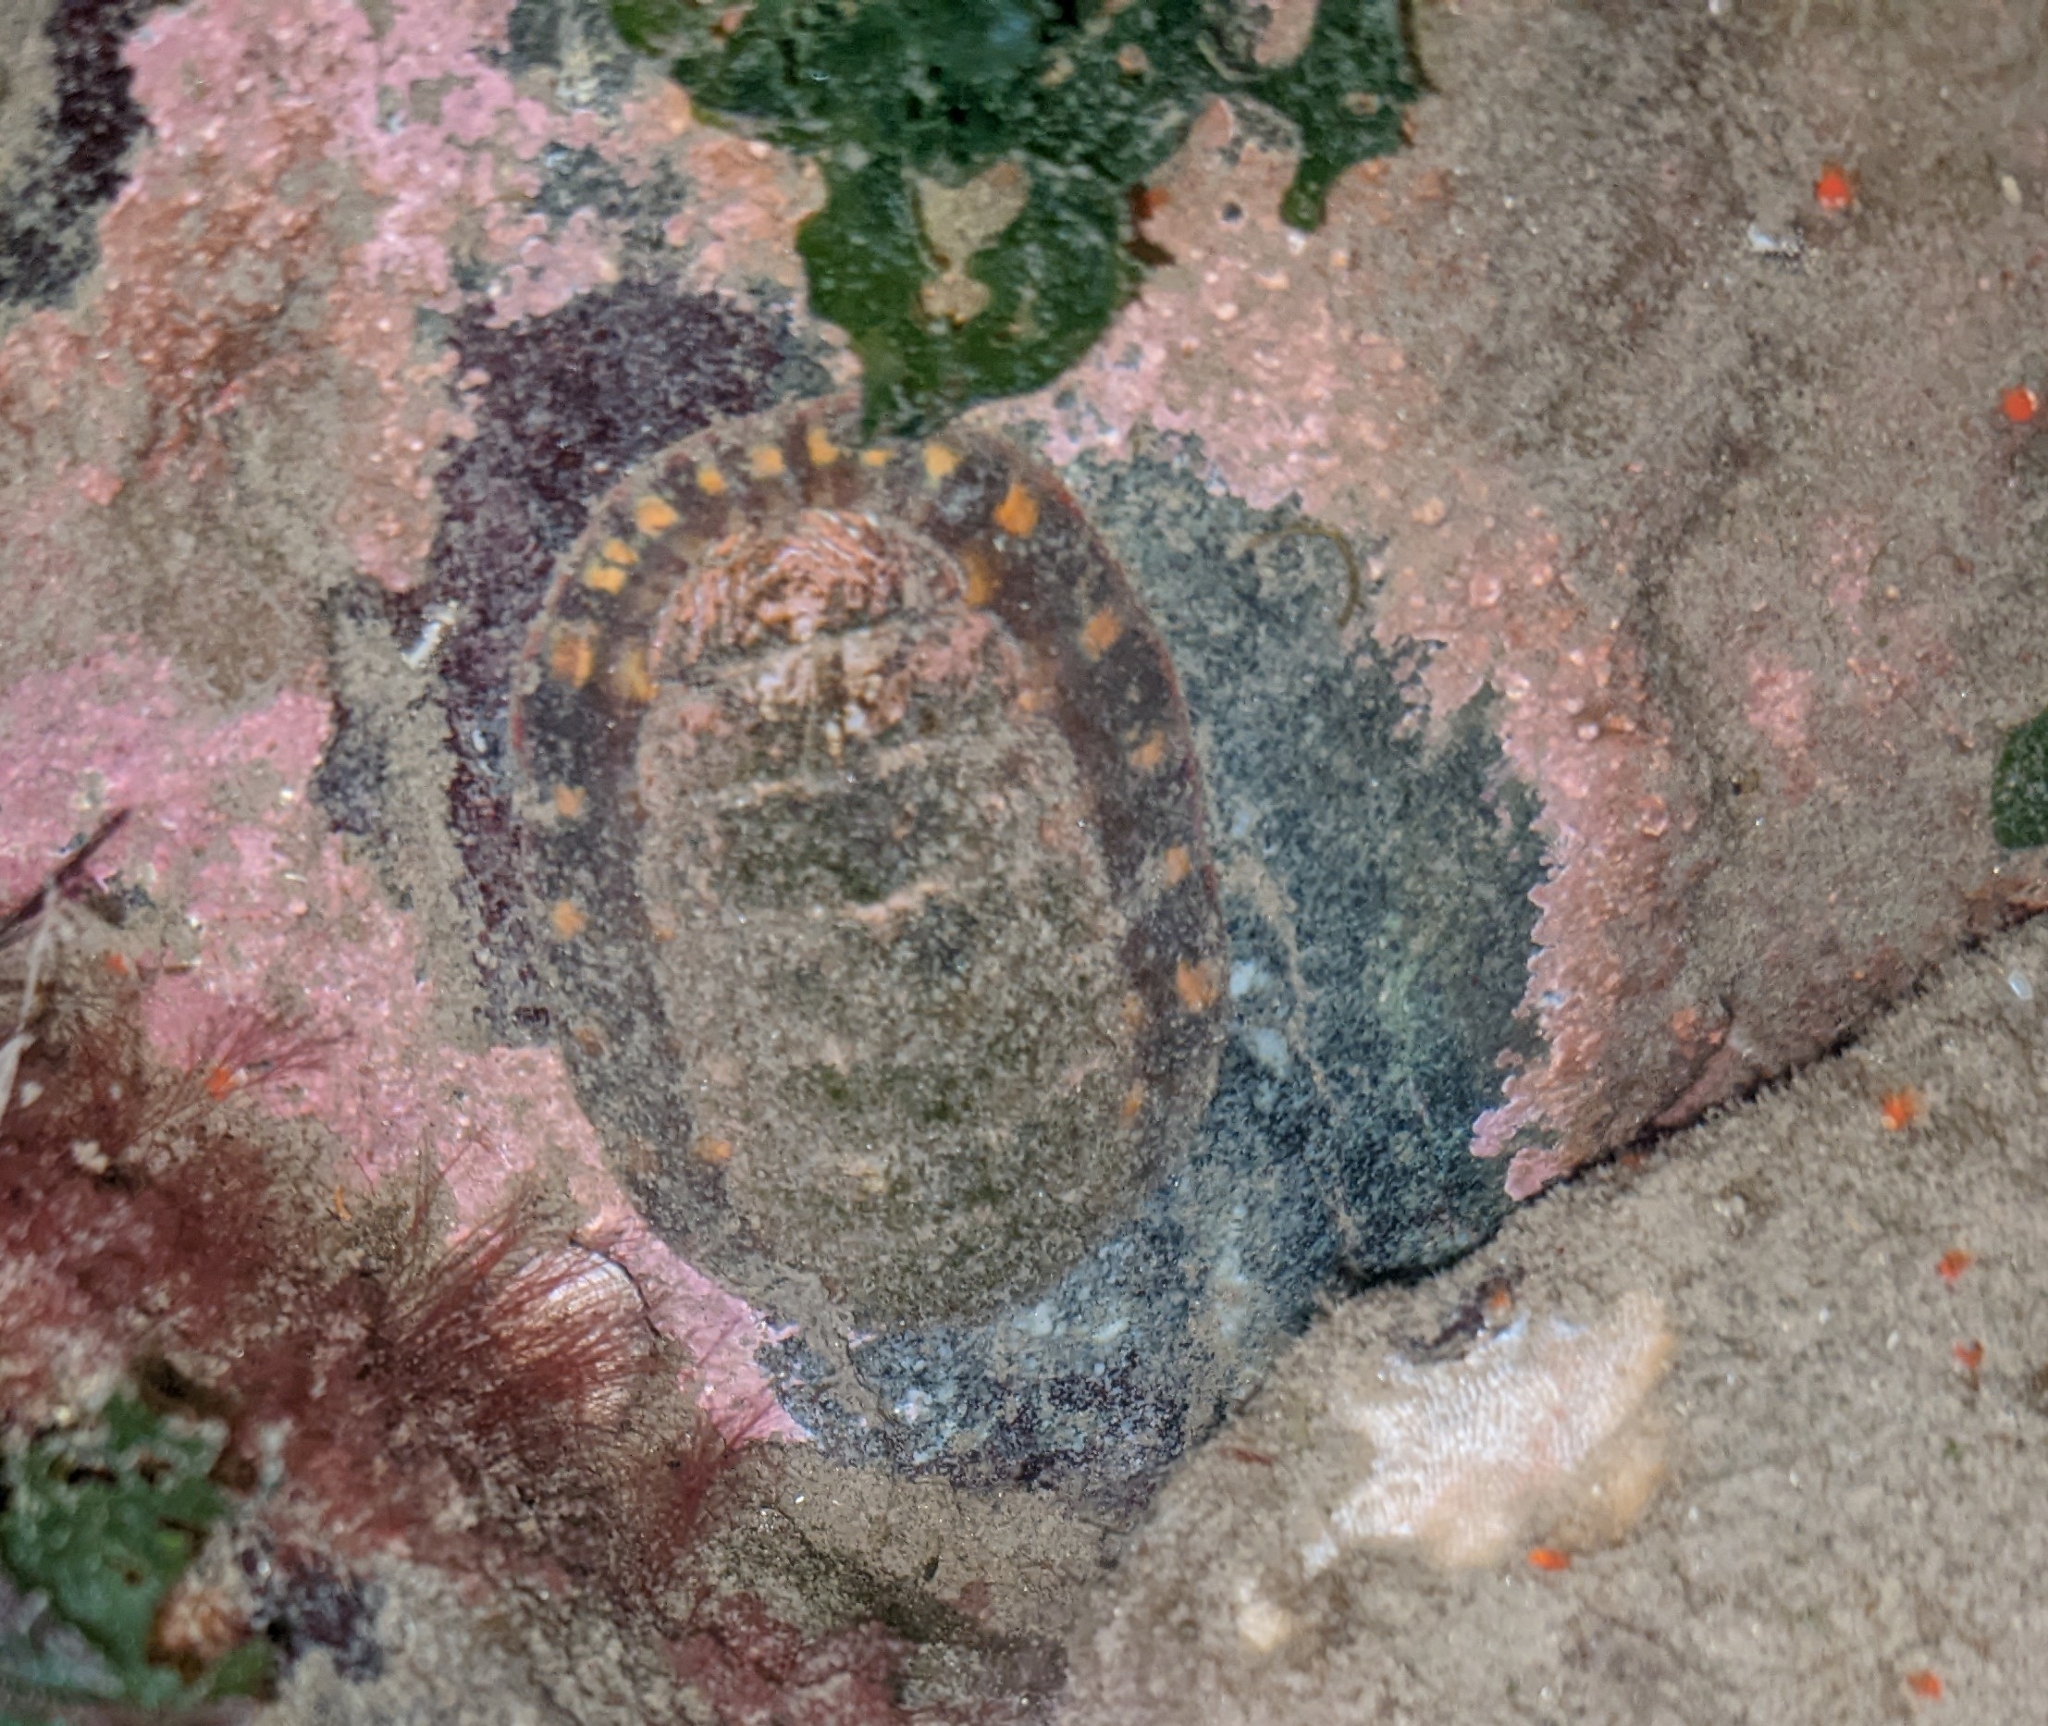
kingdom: Animalia
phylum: Mollusca
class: Polyplacophora
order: Chitonida
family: Tonicellidae
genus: Tonicella
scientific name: Tonicella lineata
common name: Lined chiton
